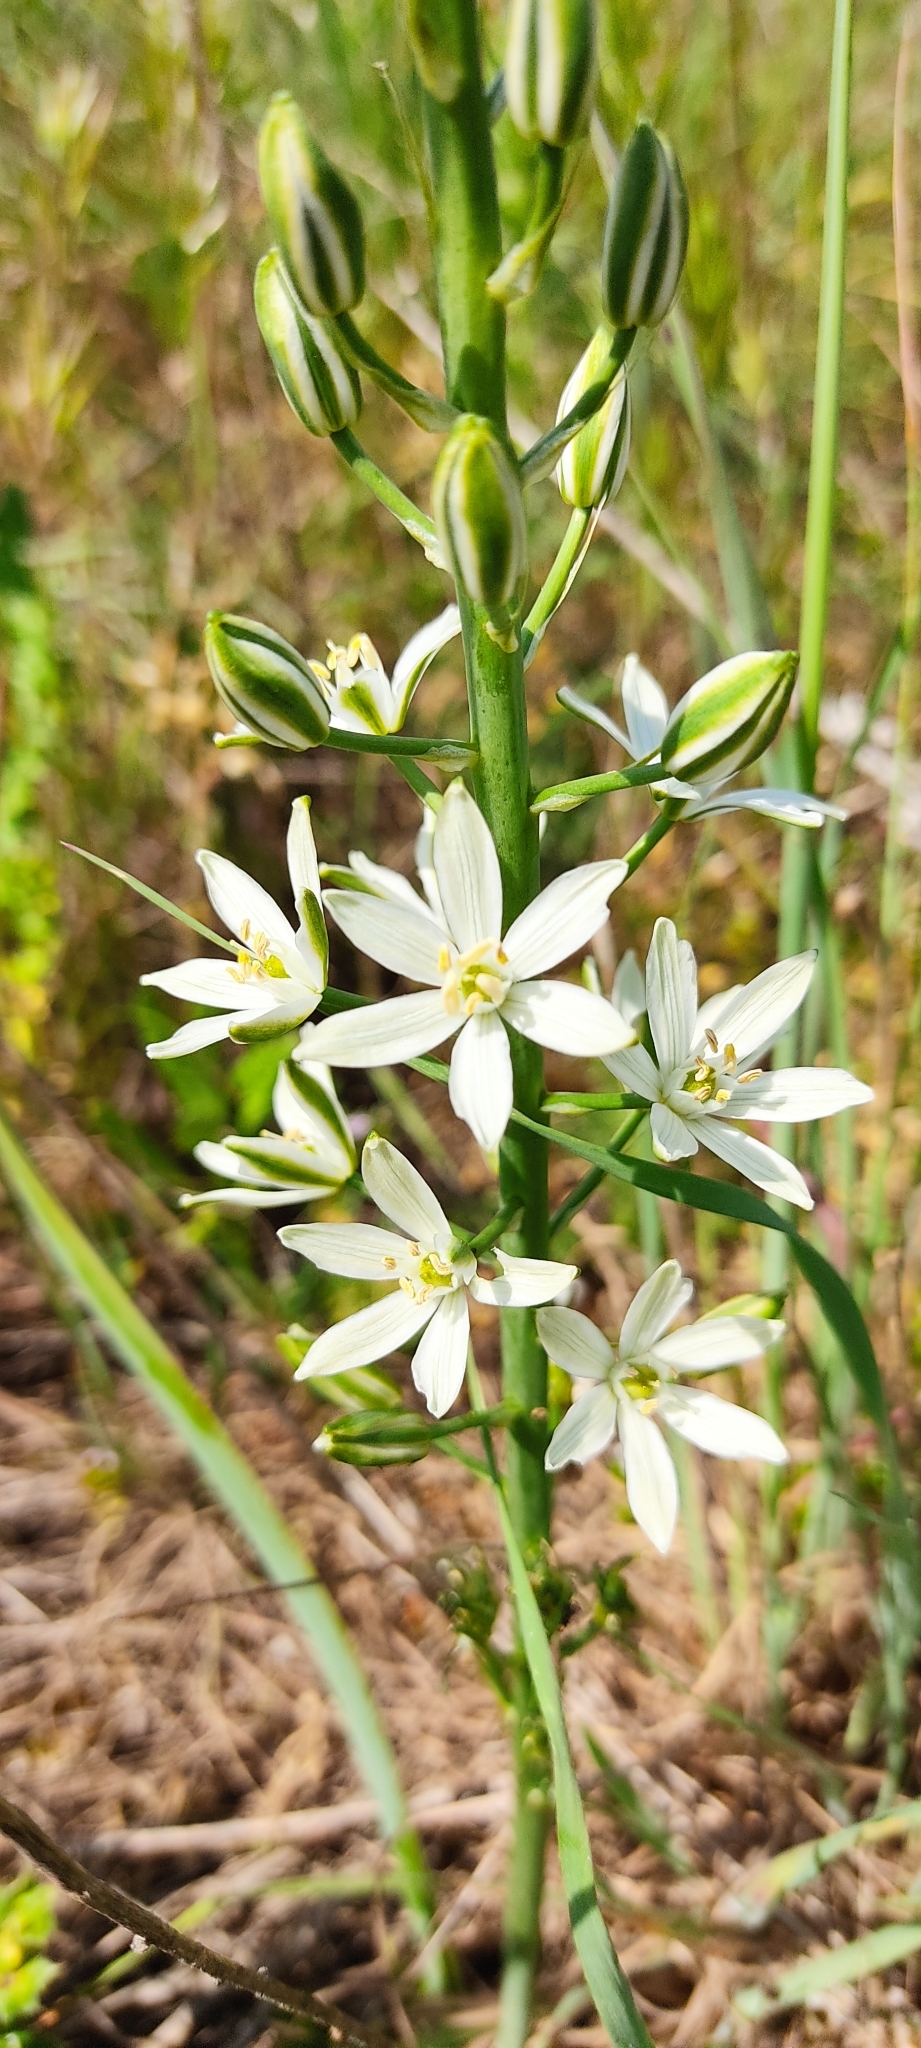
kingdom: Plantae
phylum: Tracheophyta
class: Liliopsida
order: Asparagales
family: Asparagaceae
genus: Ornithogalum
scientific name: Ornithogalum narbonense
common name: Bath-asparagus
